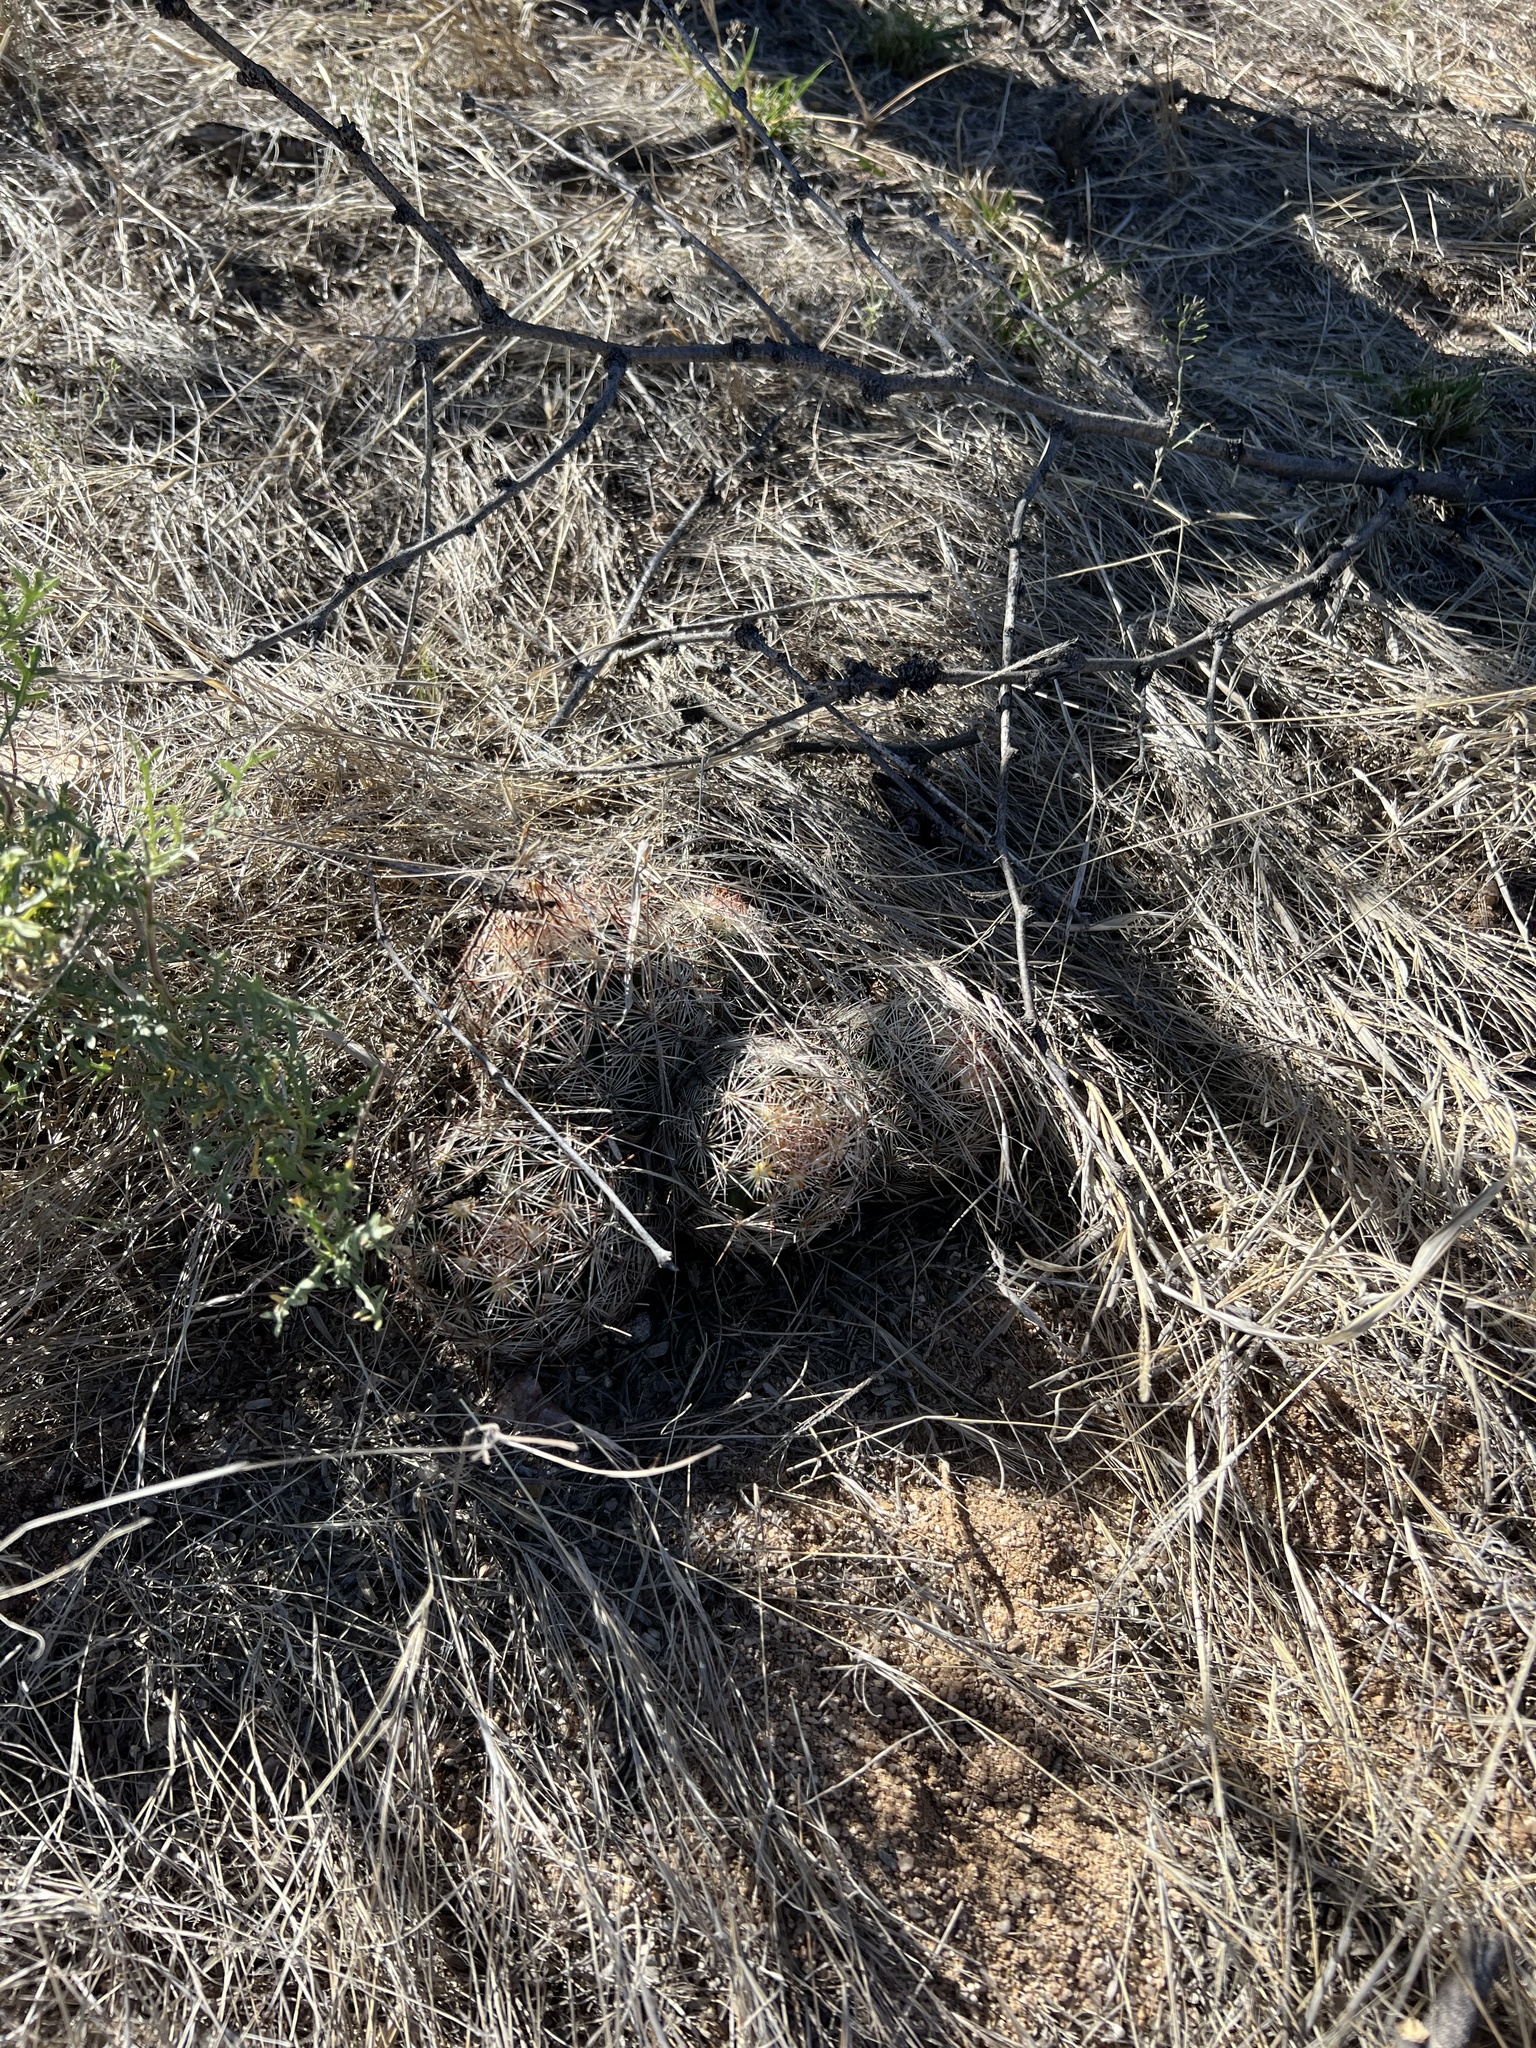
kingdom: Plantae
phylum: Tracheophyta
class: Magnoliopsida
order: Caryophyllales
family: Cactaceae
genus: Pelecyphora
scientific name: Pelecyphora vivipara
